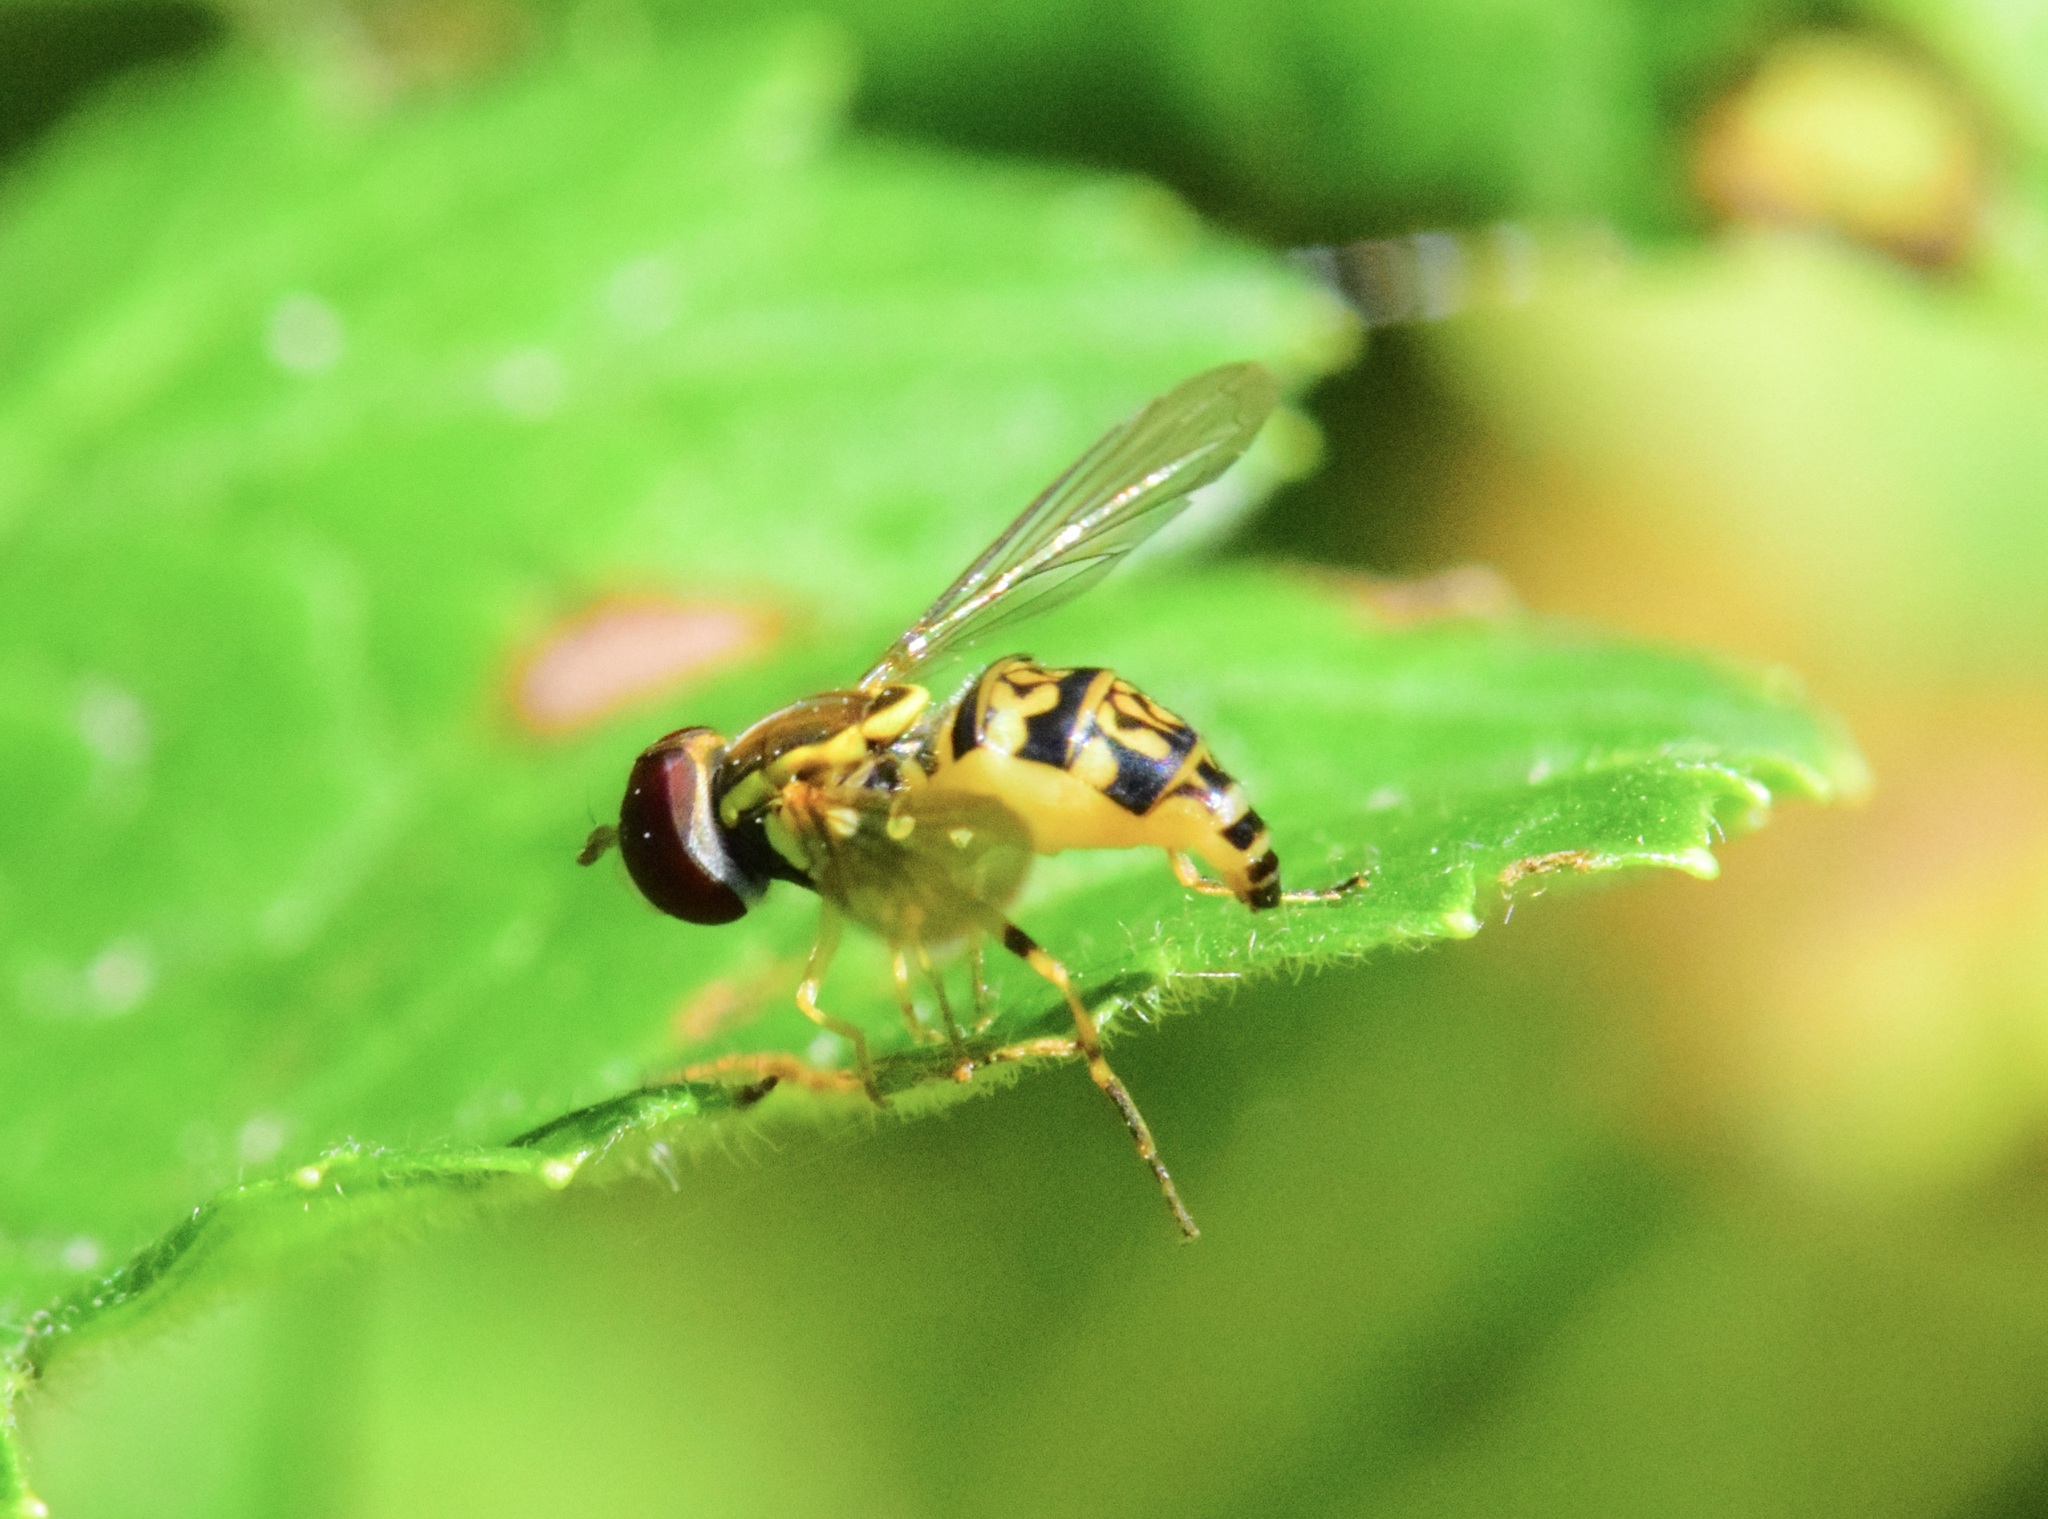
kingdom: Animalia
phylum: Arthropoda
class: Insecta
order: Diptera
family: Syrphidae
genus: Toxomerus
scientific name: Toxomerus geminatus
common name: Eastern calligrapher
